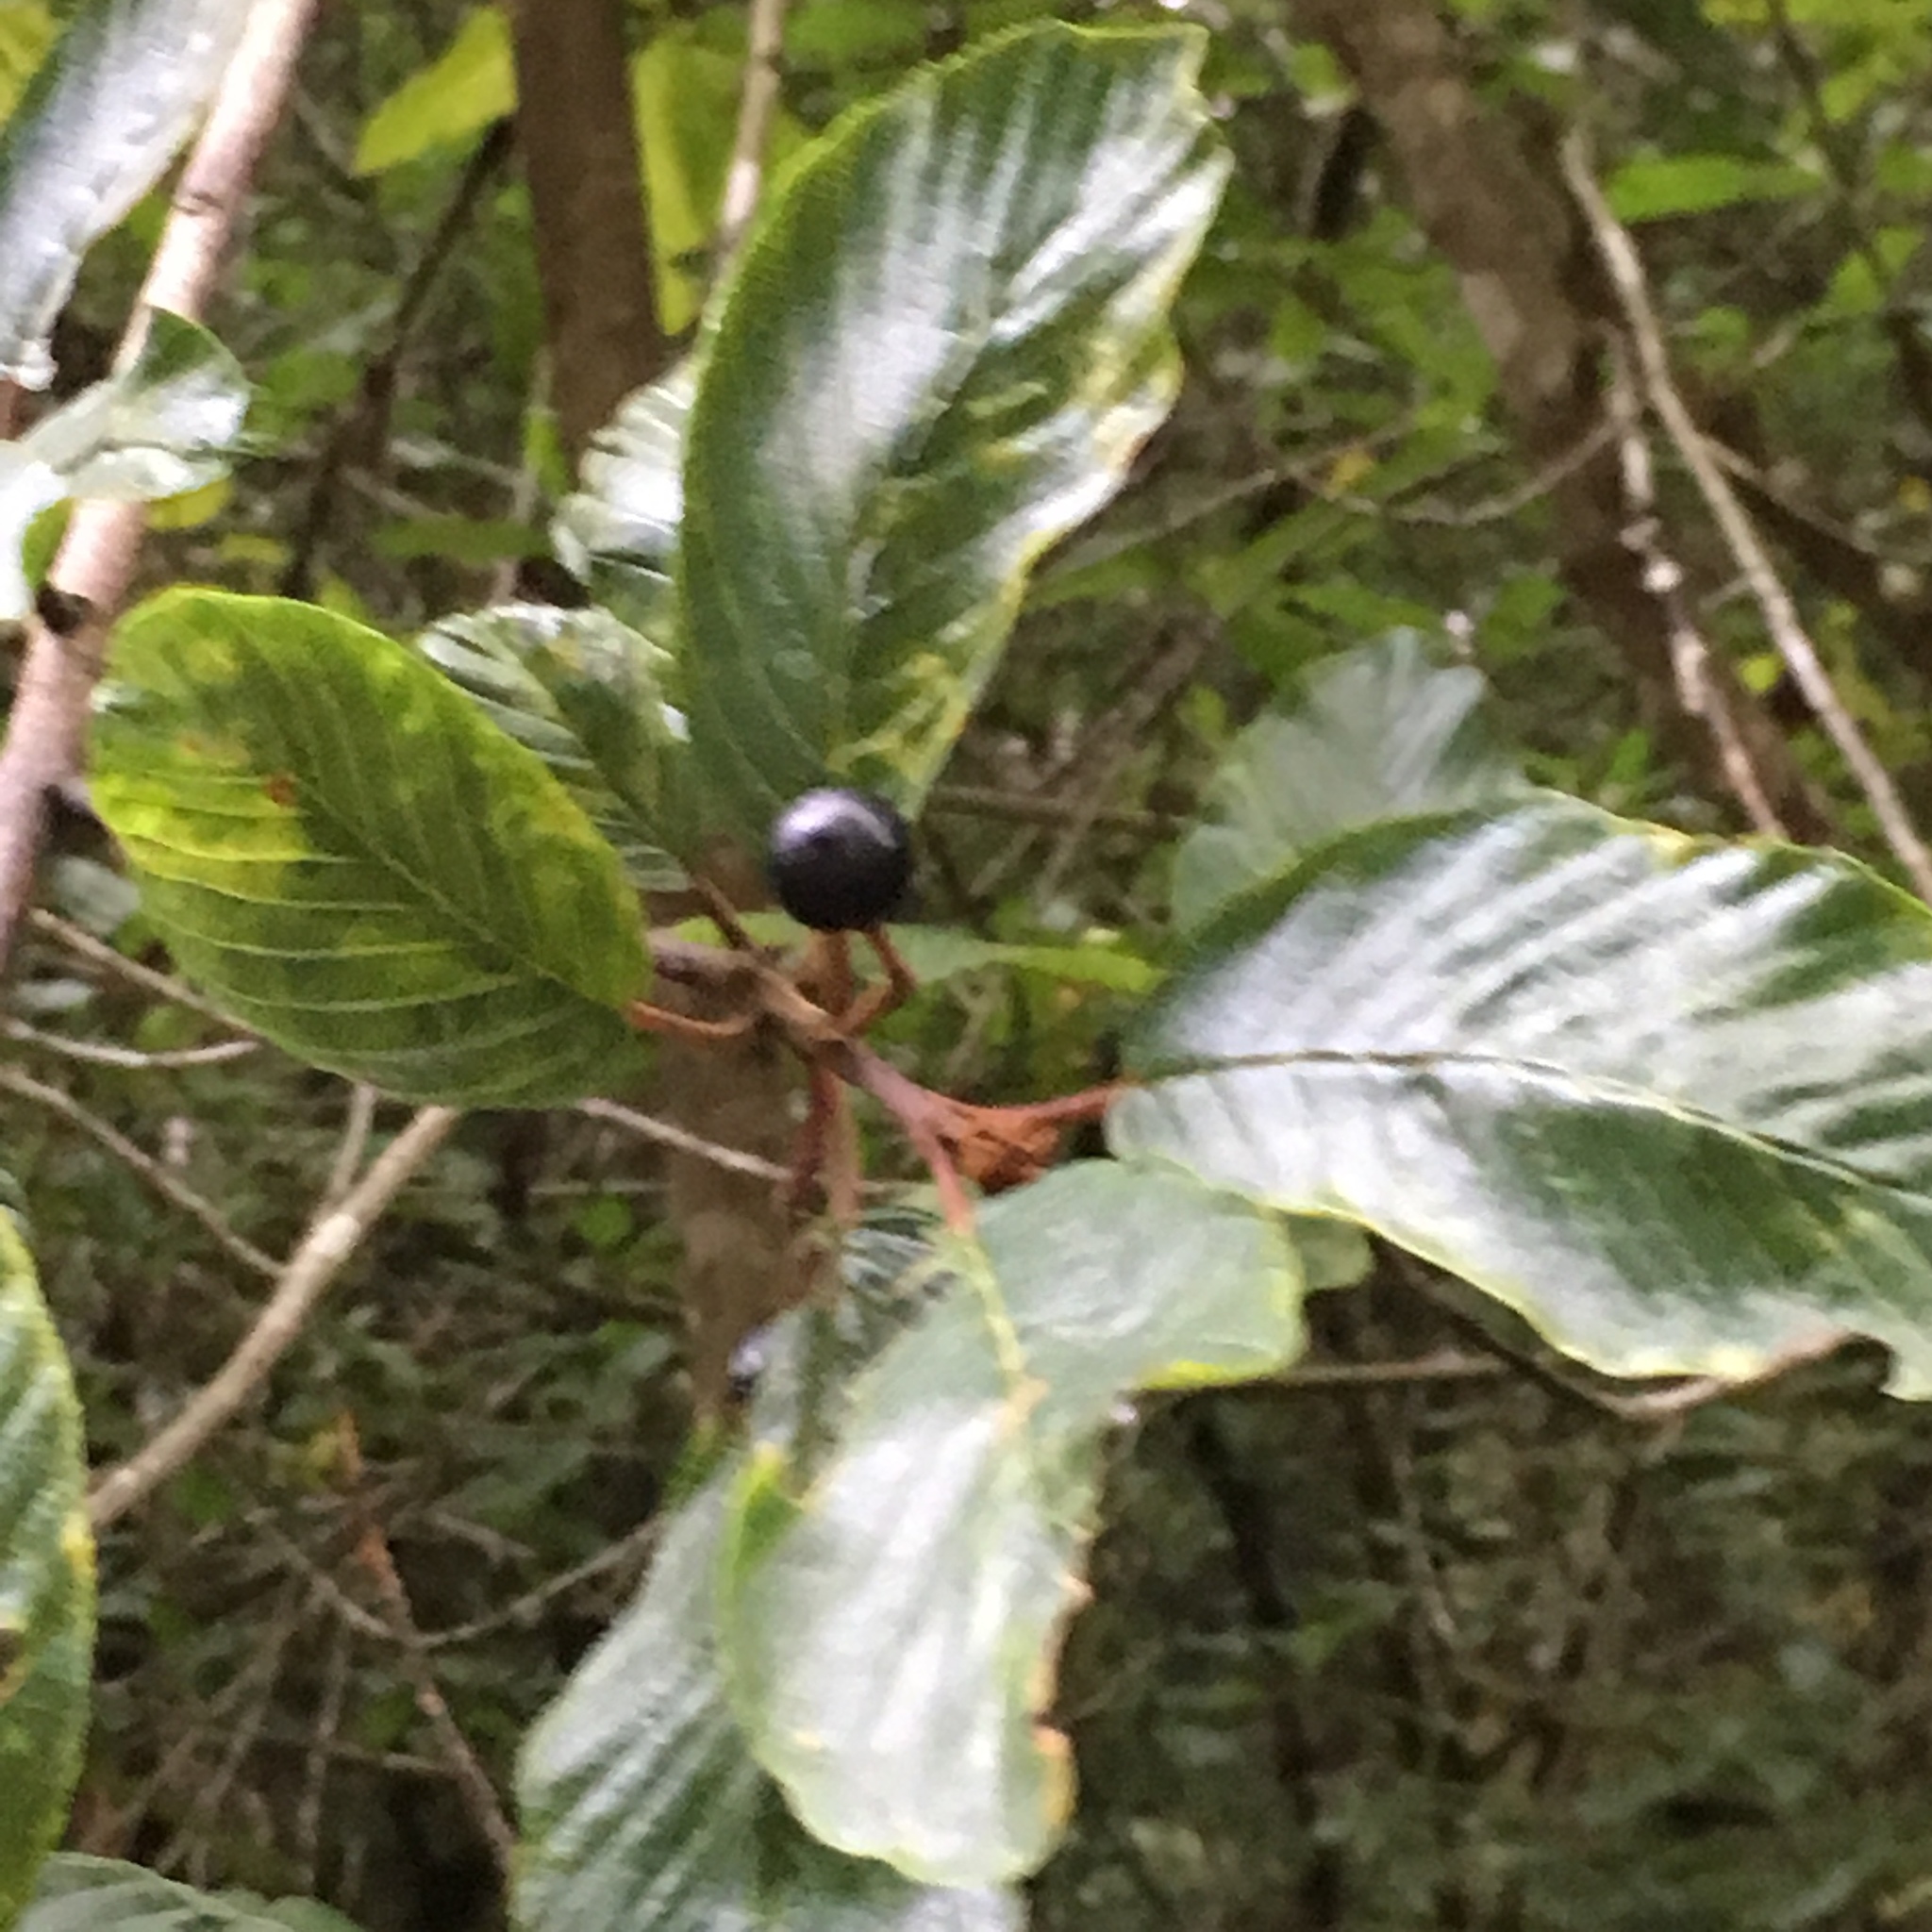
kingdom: Plantae
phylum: Tracheophyta
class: Magnoliopsida
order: Rosales
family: Rhamnaceae
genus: Frangula
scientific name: Frangula purshiana
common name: Cascara buckthorn
